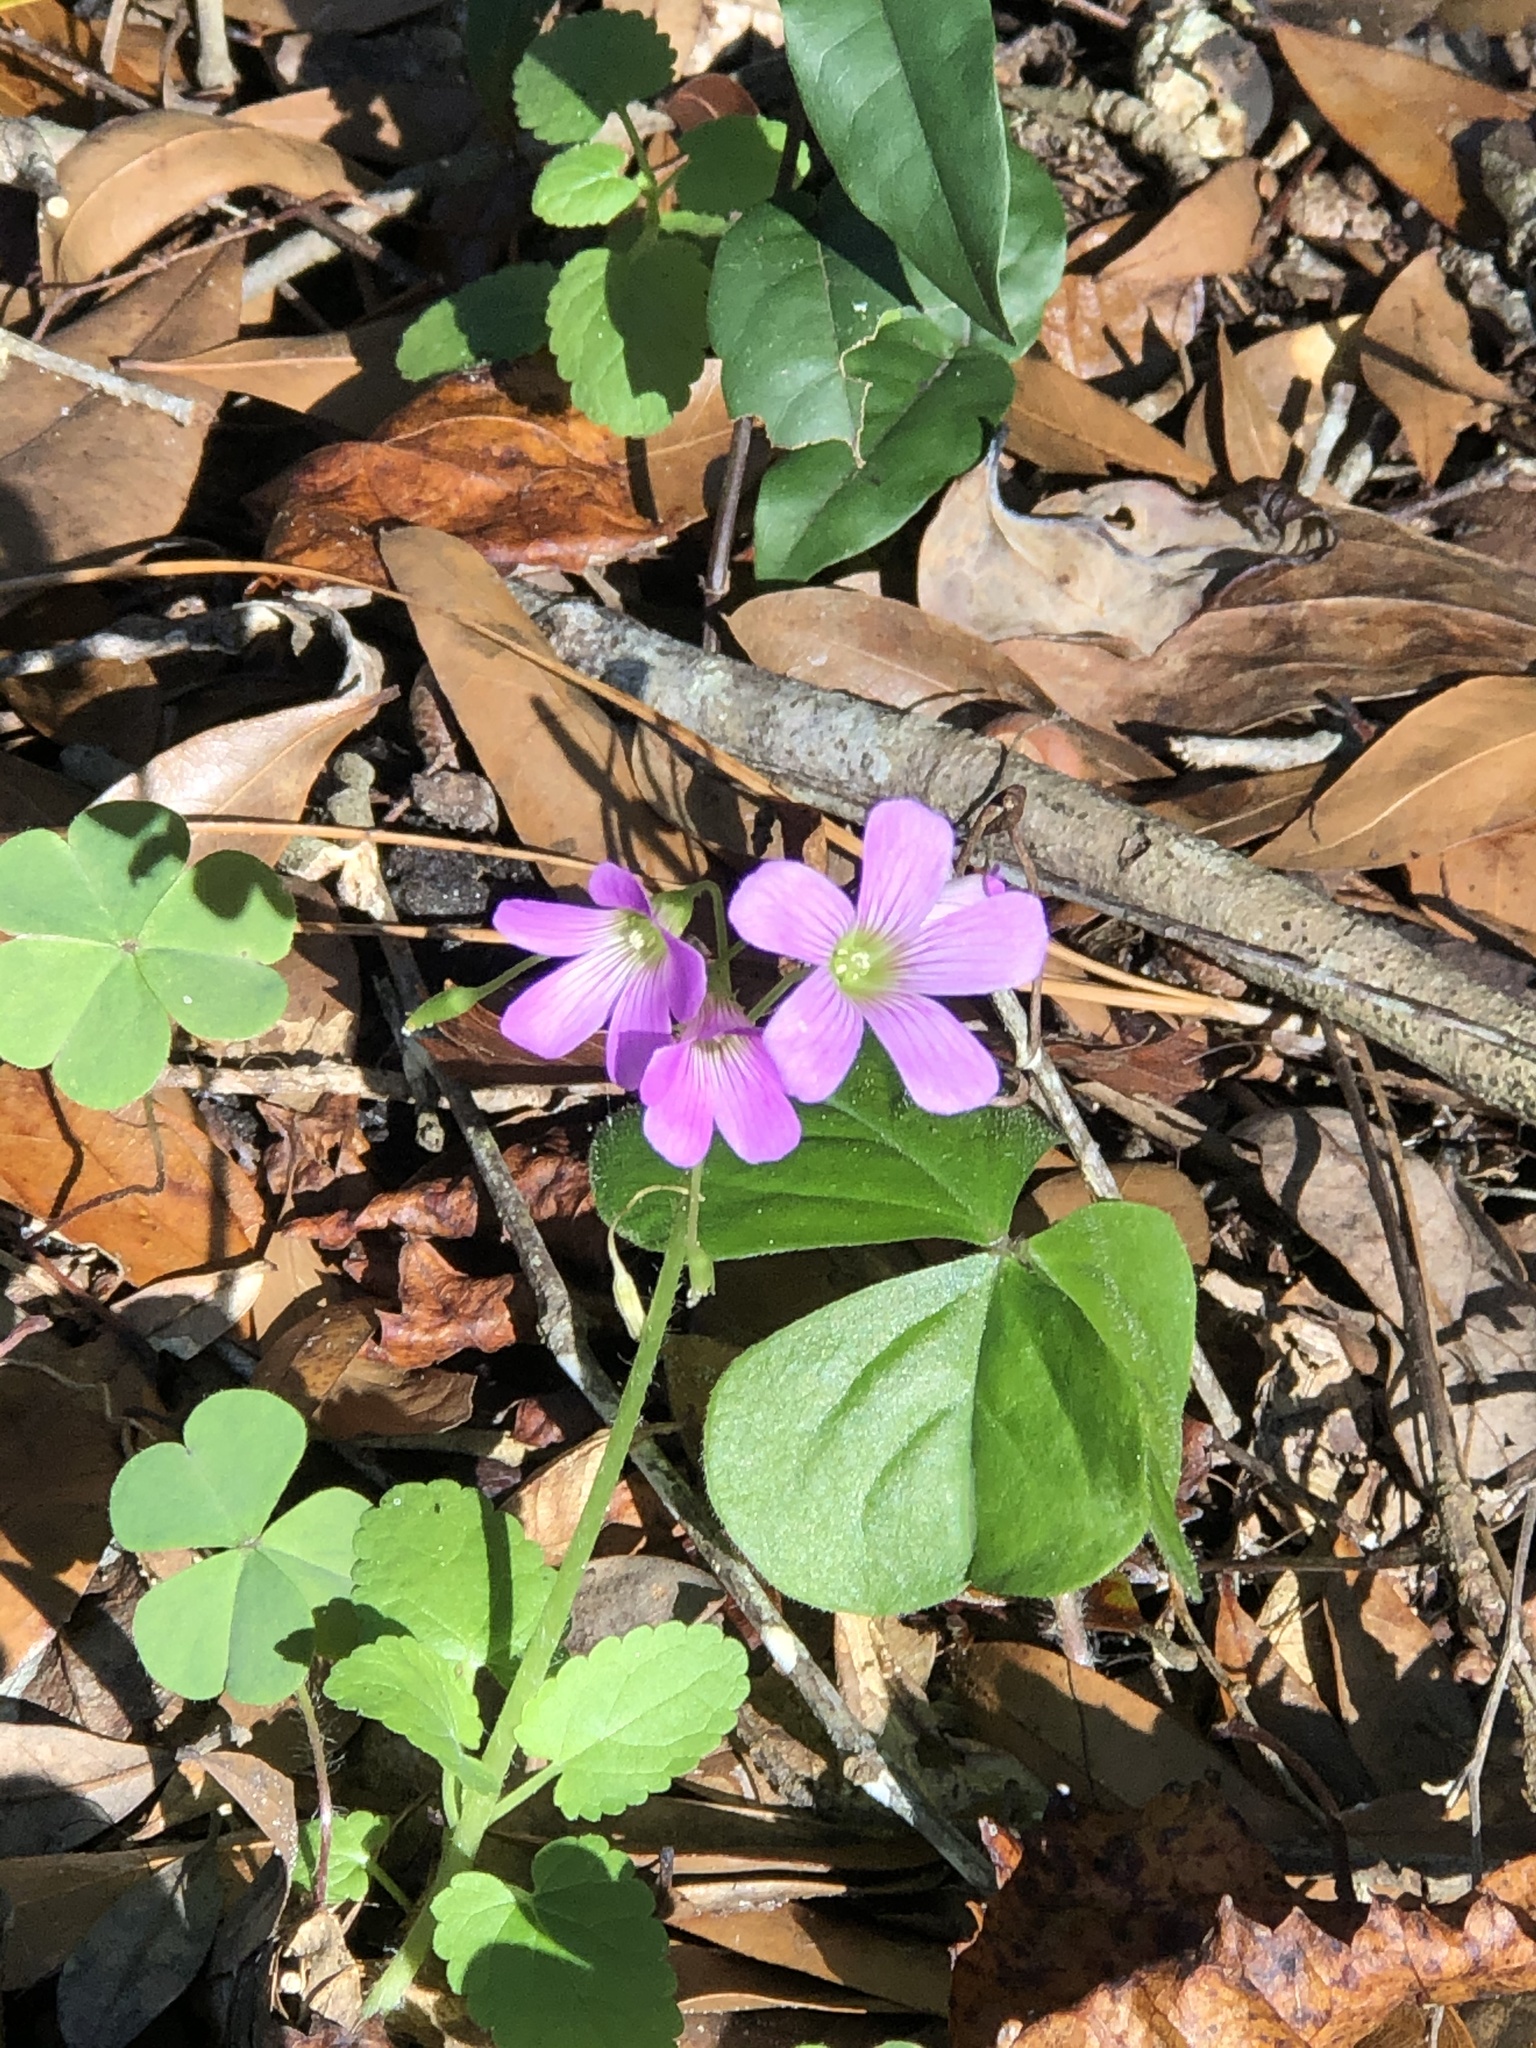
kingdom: Plantae
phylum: Tracheophyta
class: Magnoliopsida
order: Oxalidales
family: Oxalidaceae
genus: Oxalis
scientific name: Oxalis debilis
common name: Large-flowered pink-sorrel
